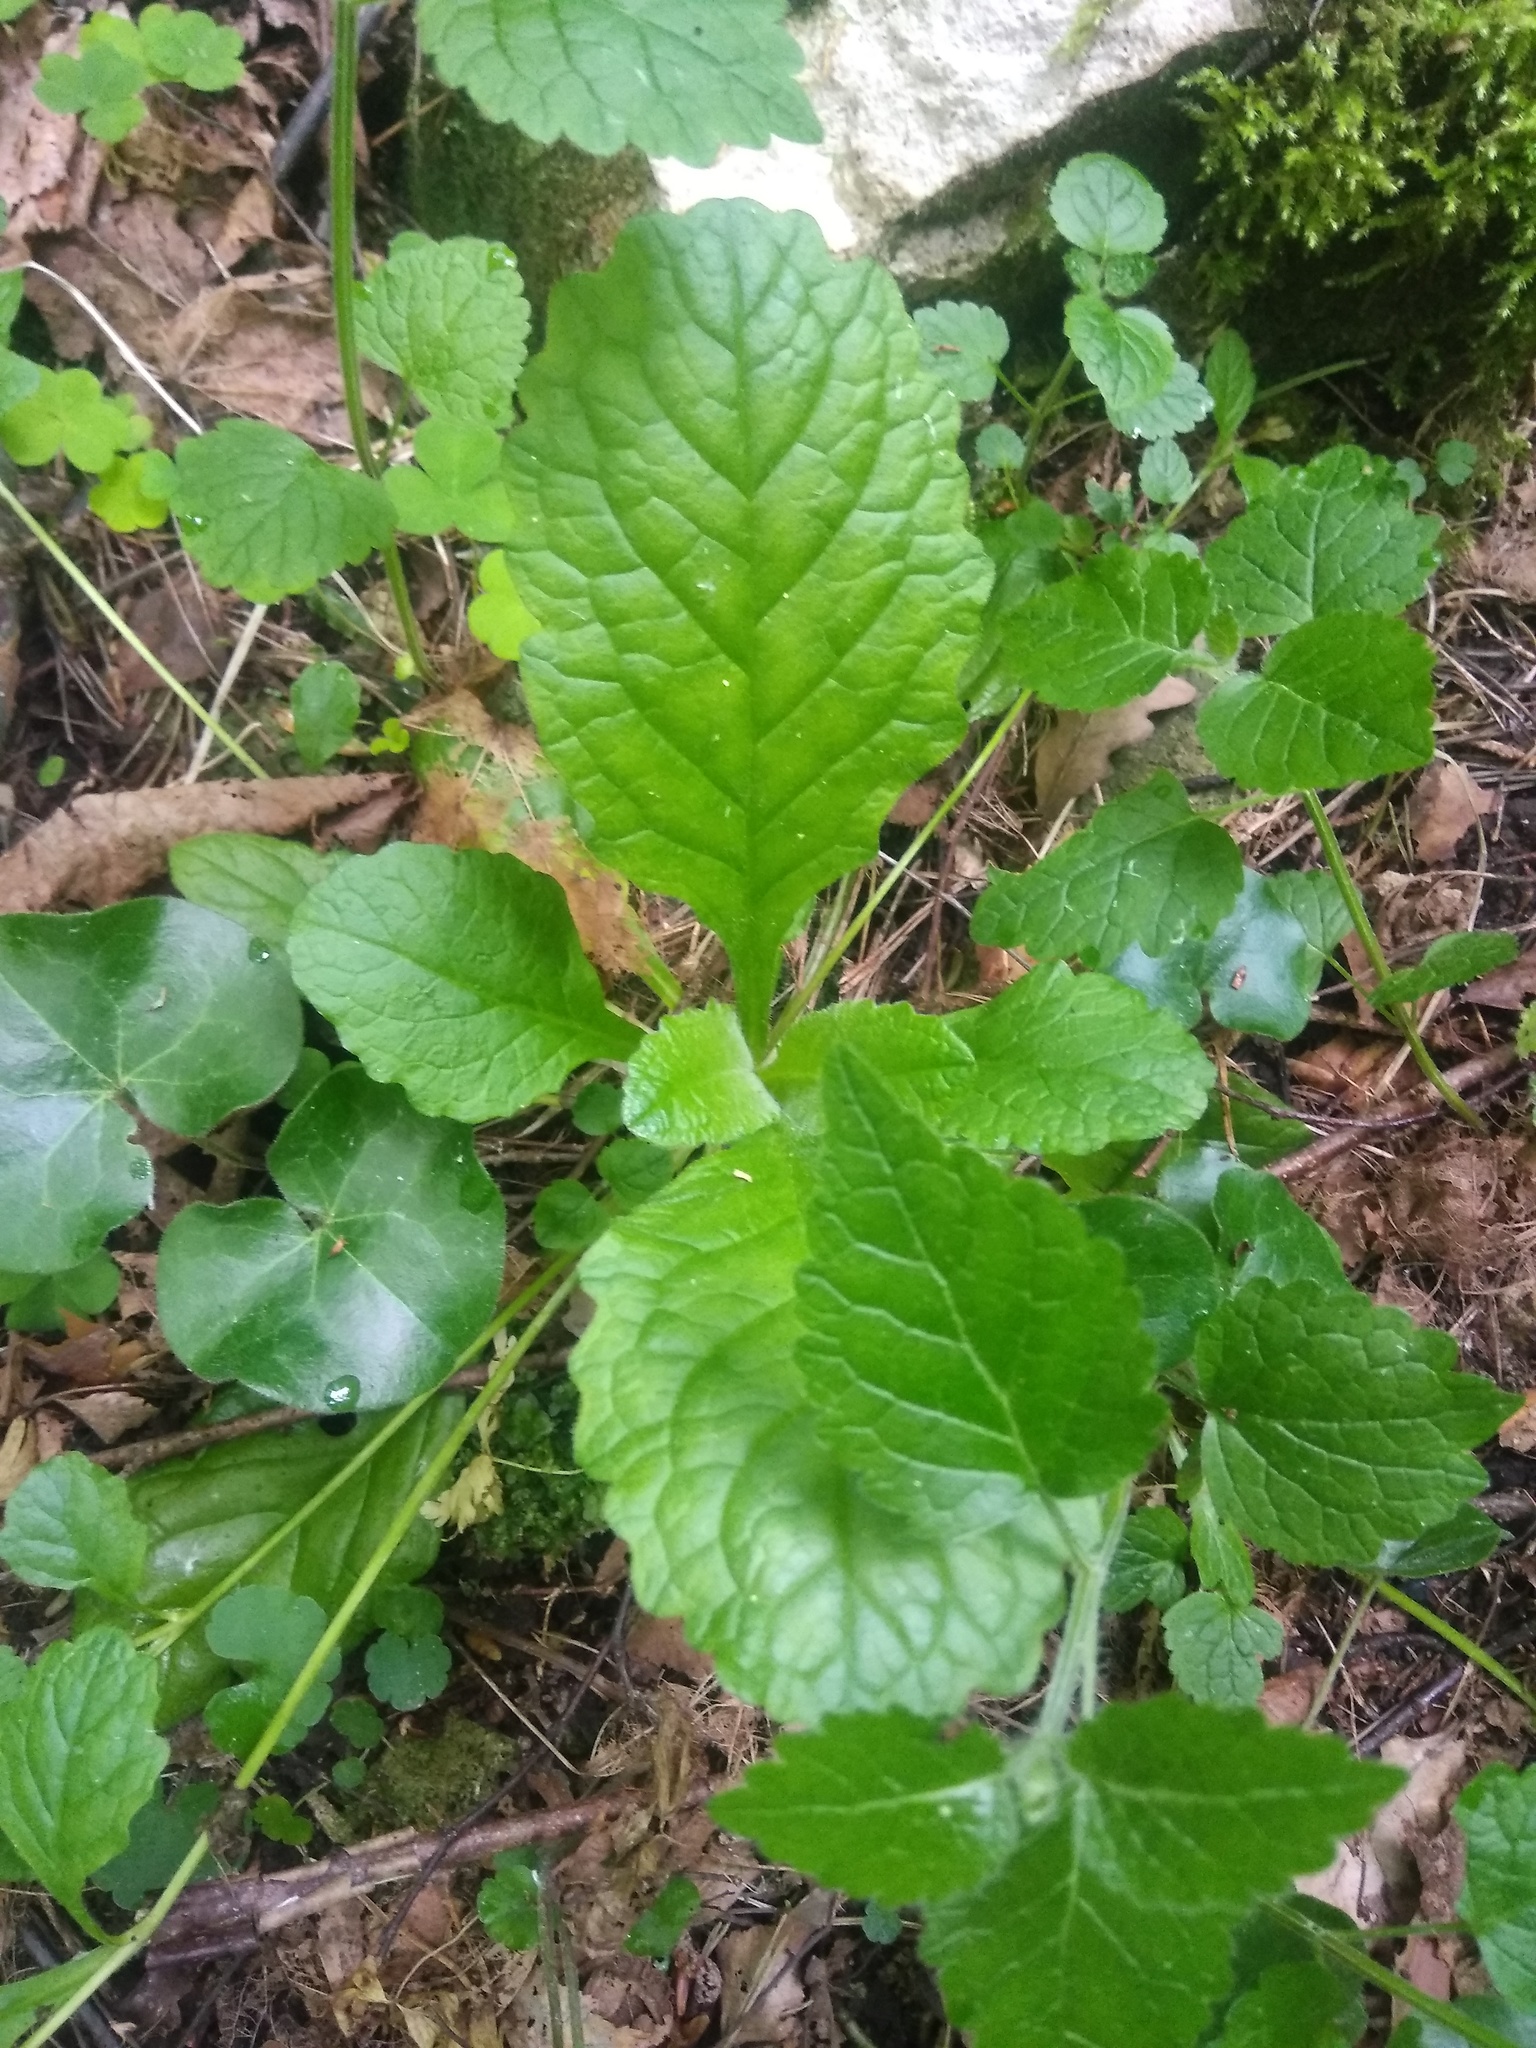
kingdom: Plantae
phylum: Tracheophyta
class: Magnoliopsida
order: Lamiales
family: Lamiaceae
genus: Ajuga
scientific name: Ajuga reptans
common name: Bugle
